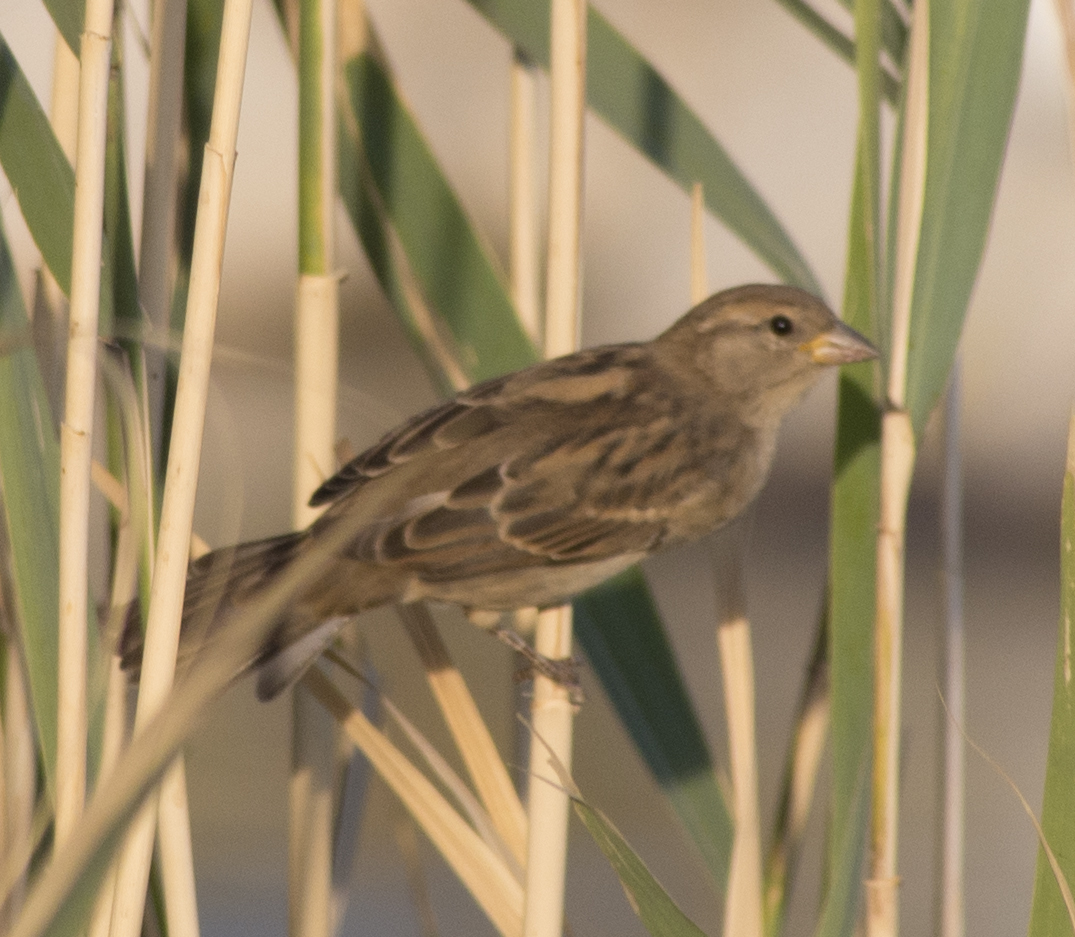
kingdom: Animalia
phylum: Chordata
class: Aves
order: Passeriformes
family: Passeridae
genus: Passer
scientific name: Passer domesticus
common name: House sparrow
